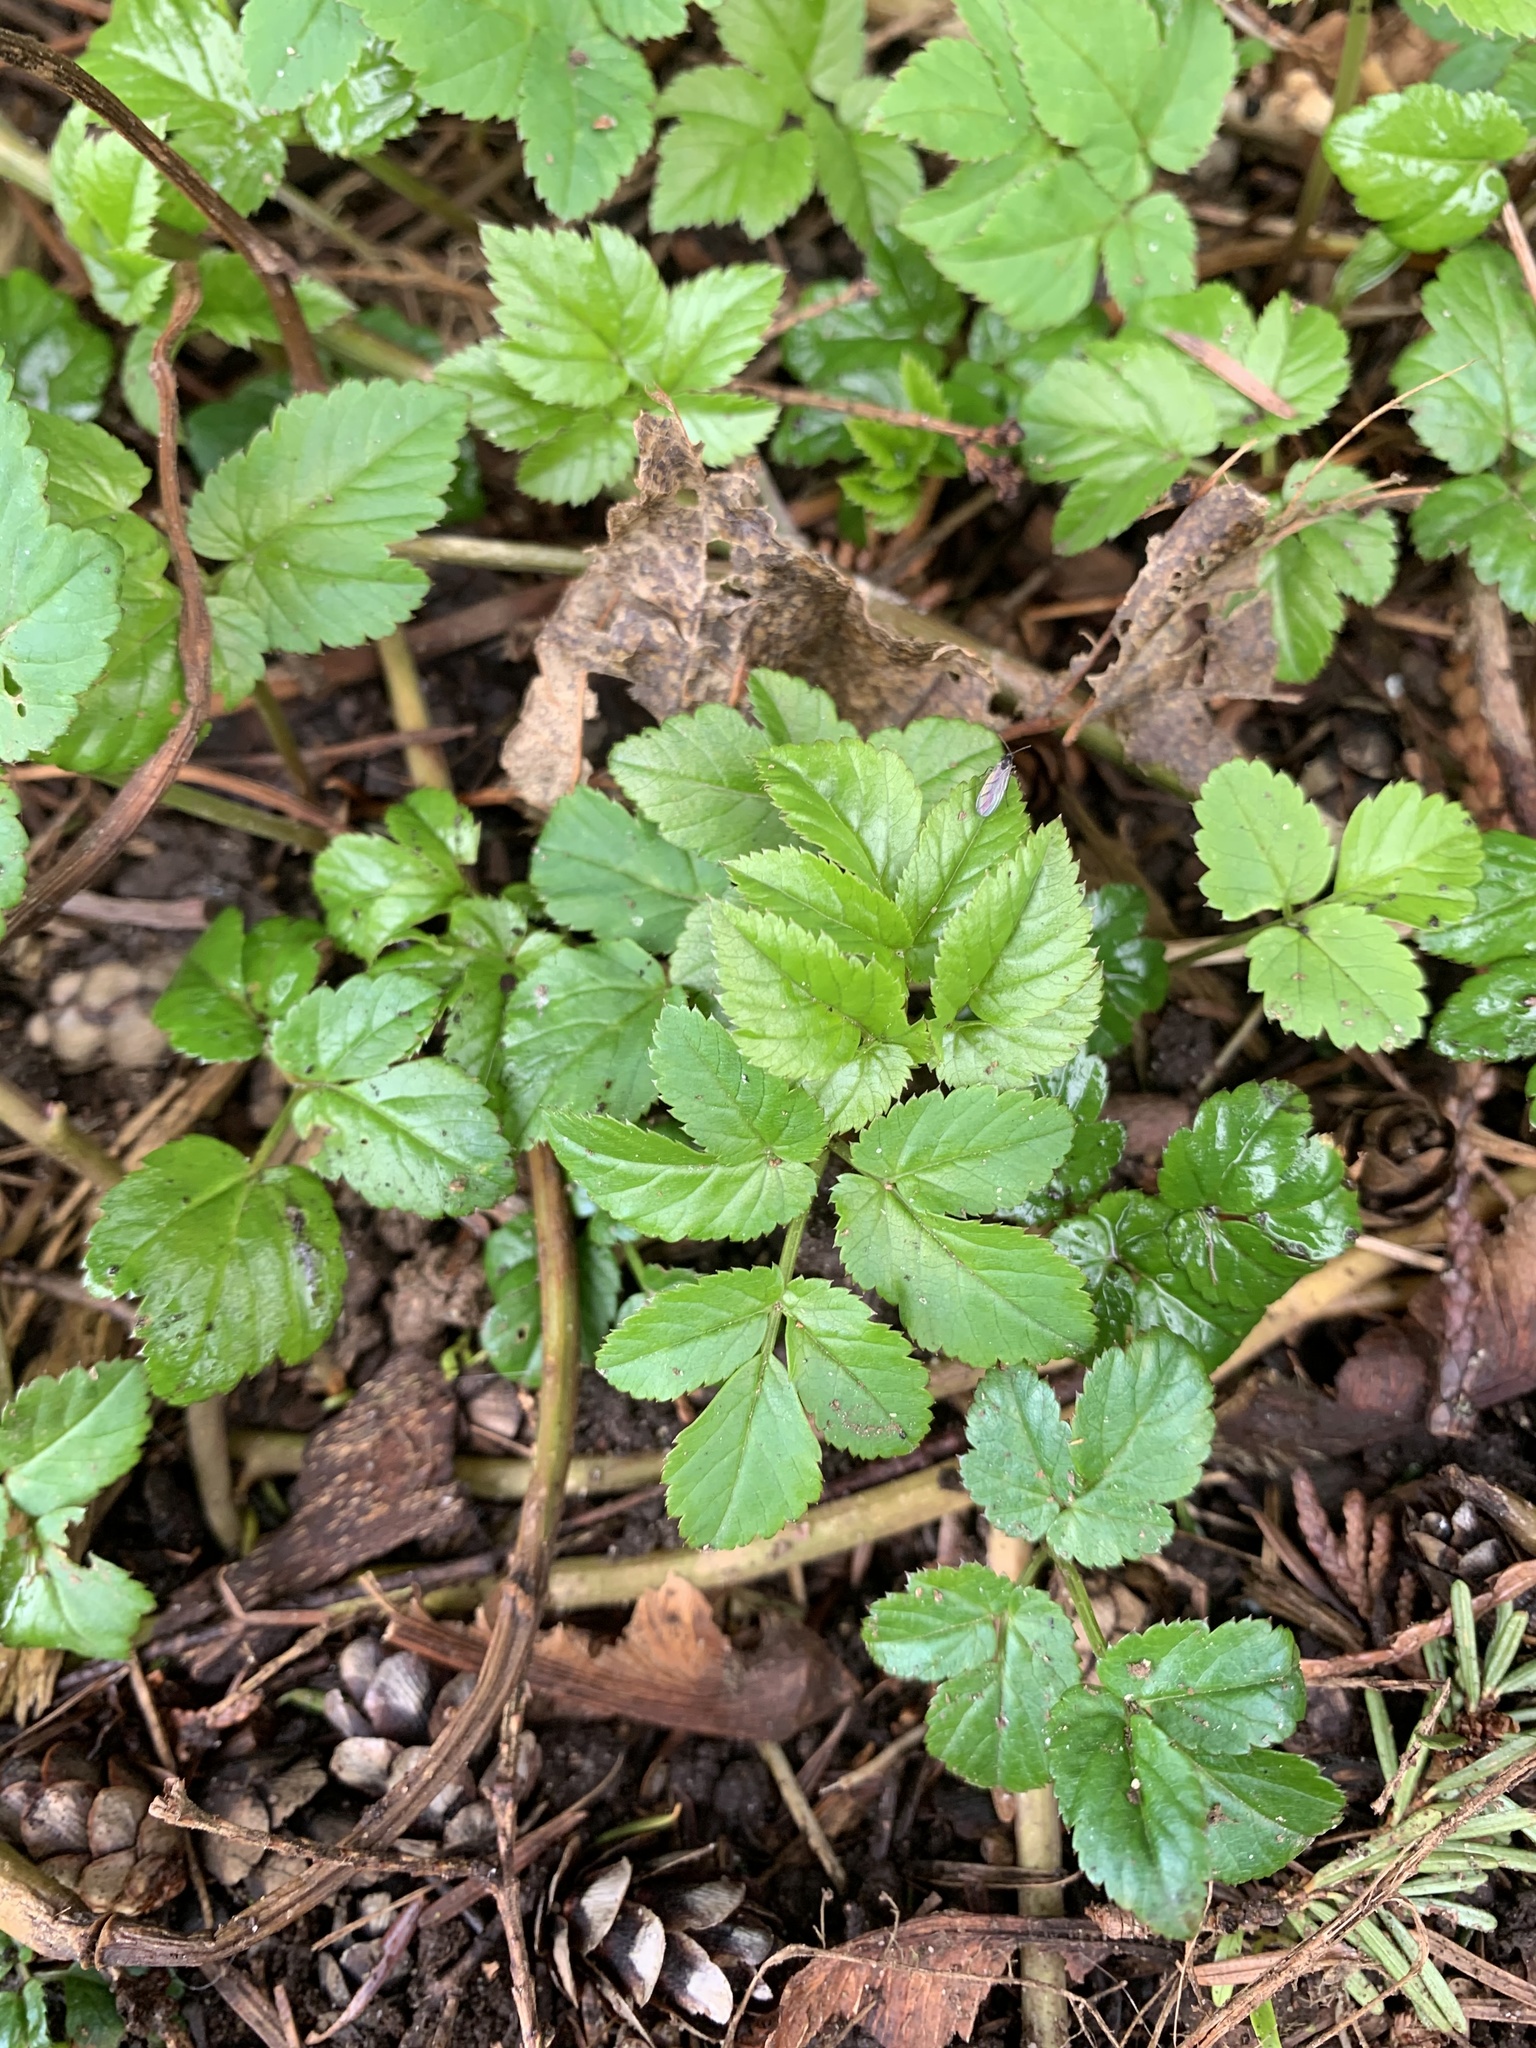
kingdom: Plantae
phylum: Tracheophyta
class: Magnoliopsida
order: Apiales
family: Apiaceae
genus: Aegopodium
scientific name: Aegopodium podagraria
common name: Ground-elder
